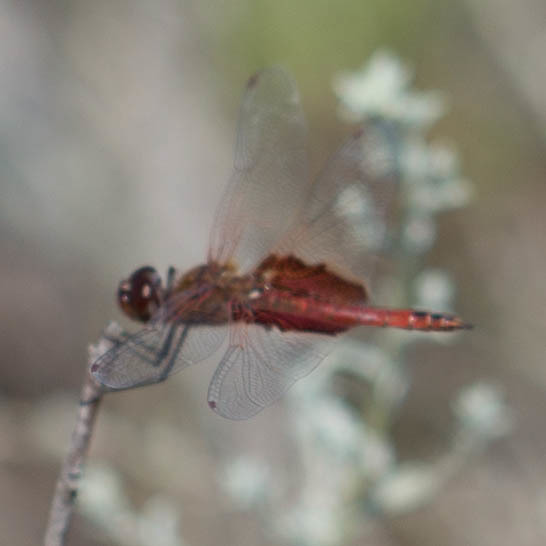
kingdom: Animalia
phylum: Arthropoda
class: Insecta
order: Odonata
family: Libellulidae
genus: Tramea
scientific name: Tramea onusta
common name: Red saddlebags
